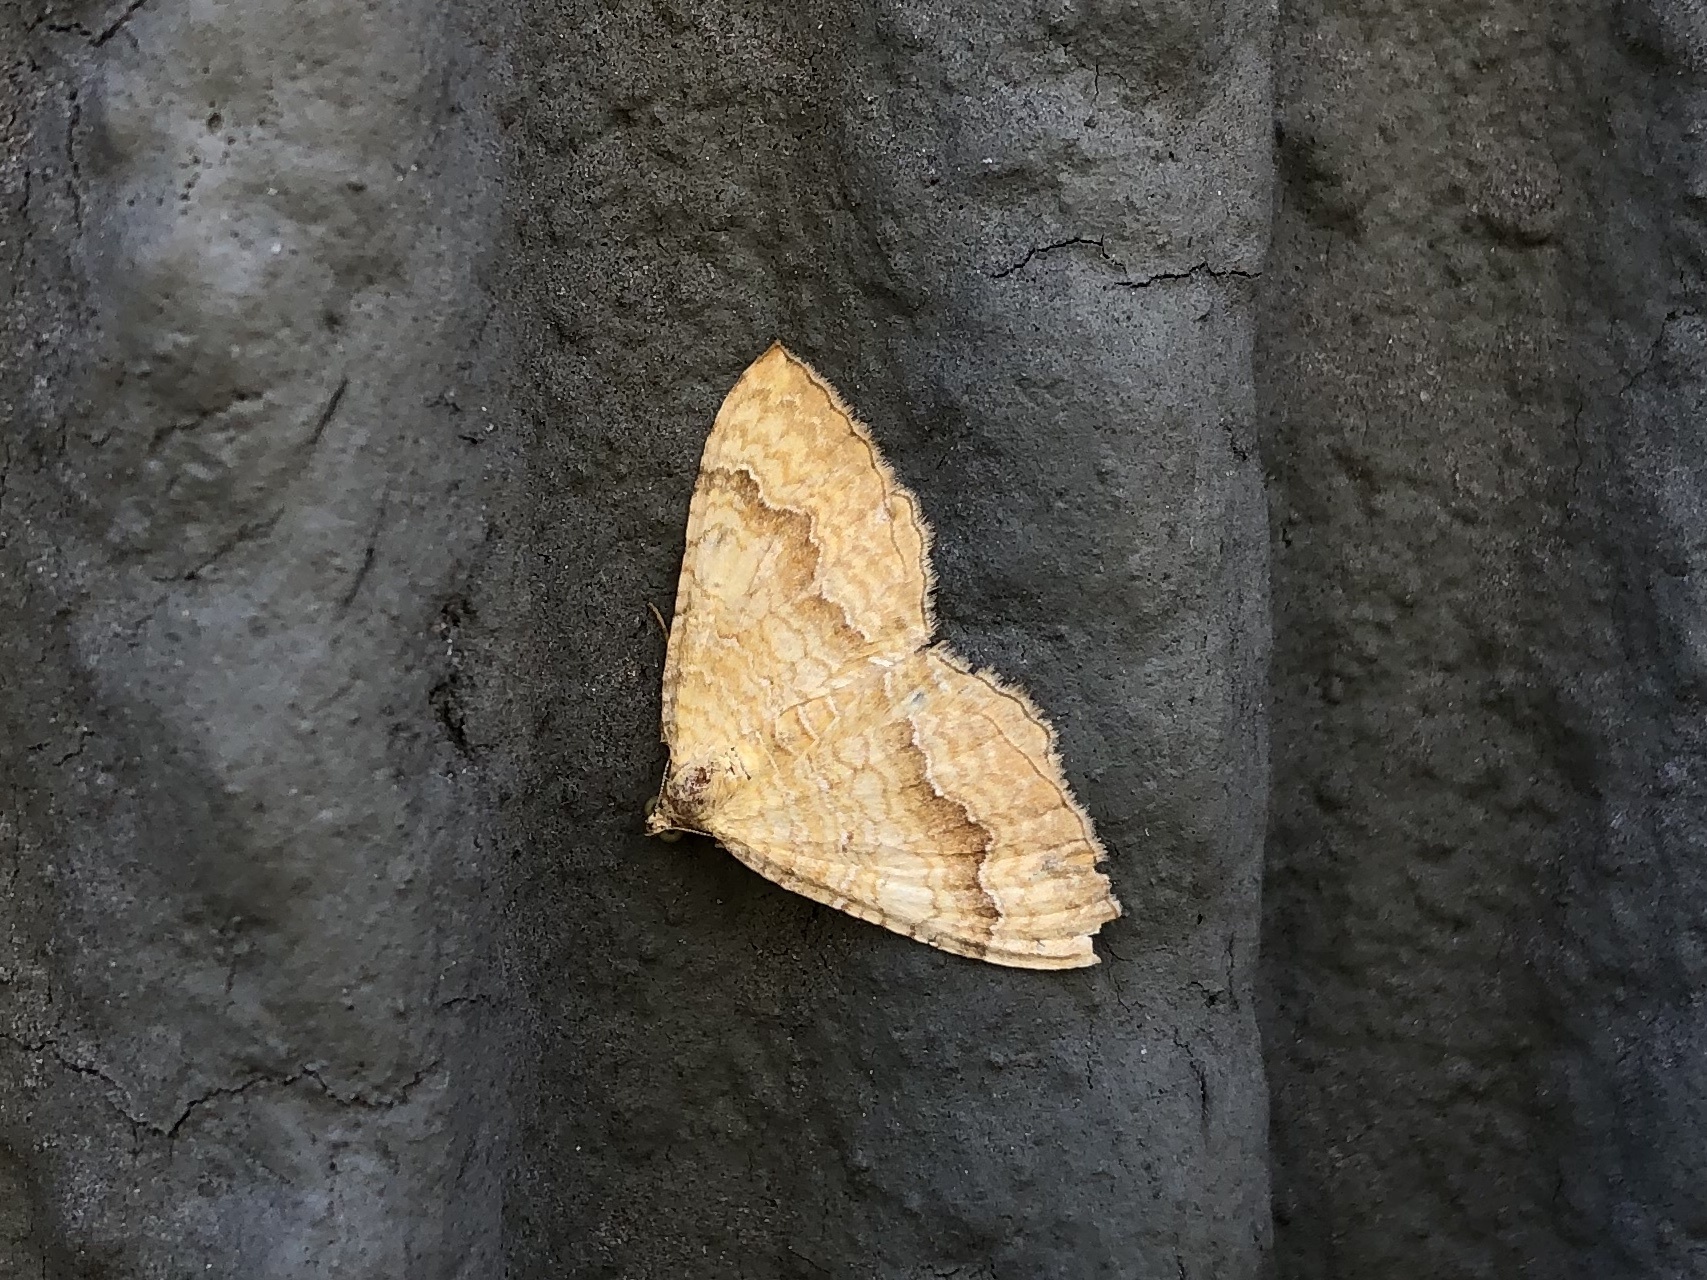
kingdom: Animalia
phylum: Arthropoda
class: Insecta
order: Lepidoptera
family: Geometridae
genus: Camptogramma
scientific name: Camptogramma bilineata
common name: Yellow shell
